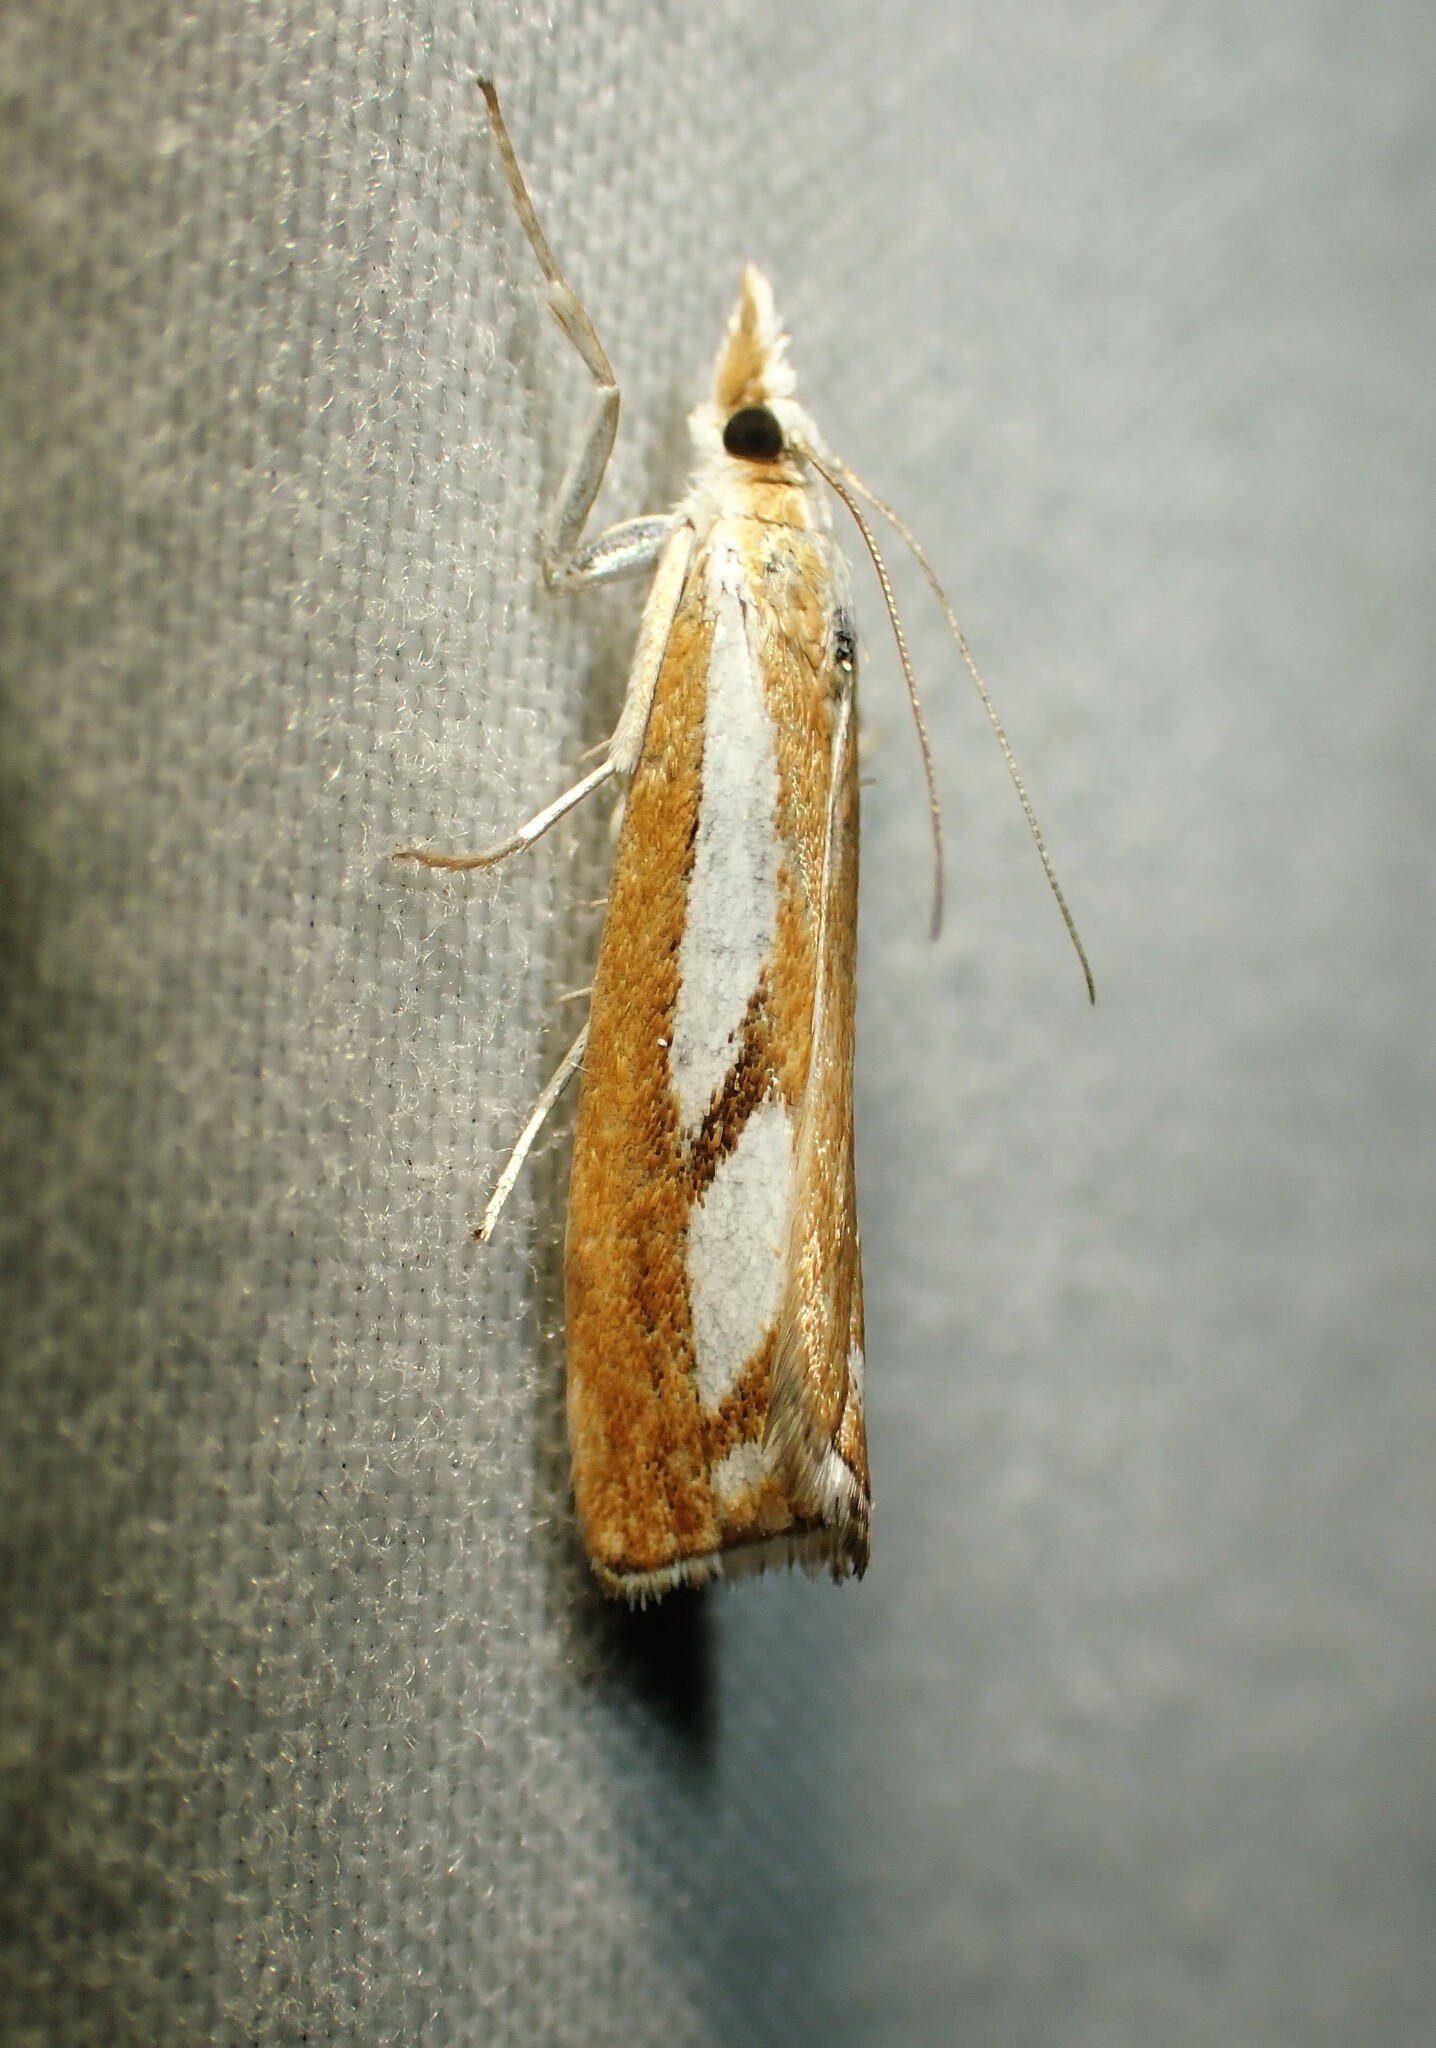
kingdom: Animalia
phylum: Arthropoda
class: Insecta
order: Lepidoptera
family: Crambidae
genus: Catoptria
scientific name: Catoptria latiradiellus
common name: Two-banded catoptria moth
